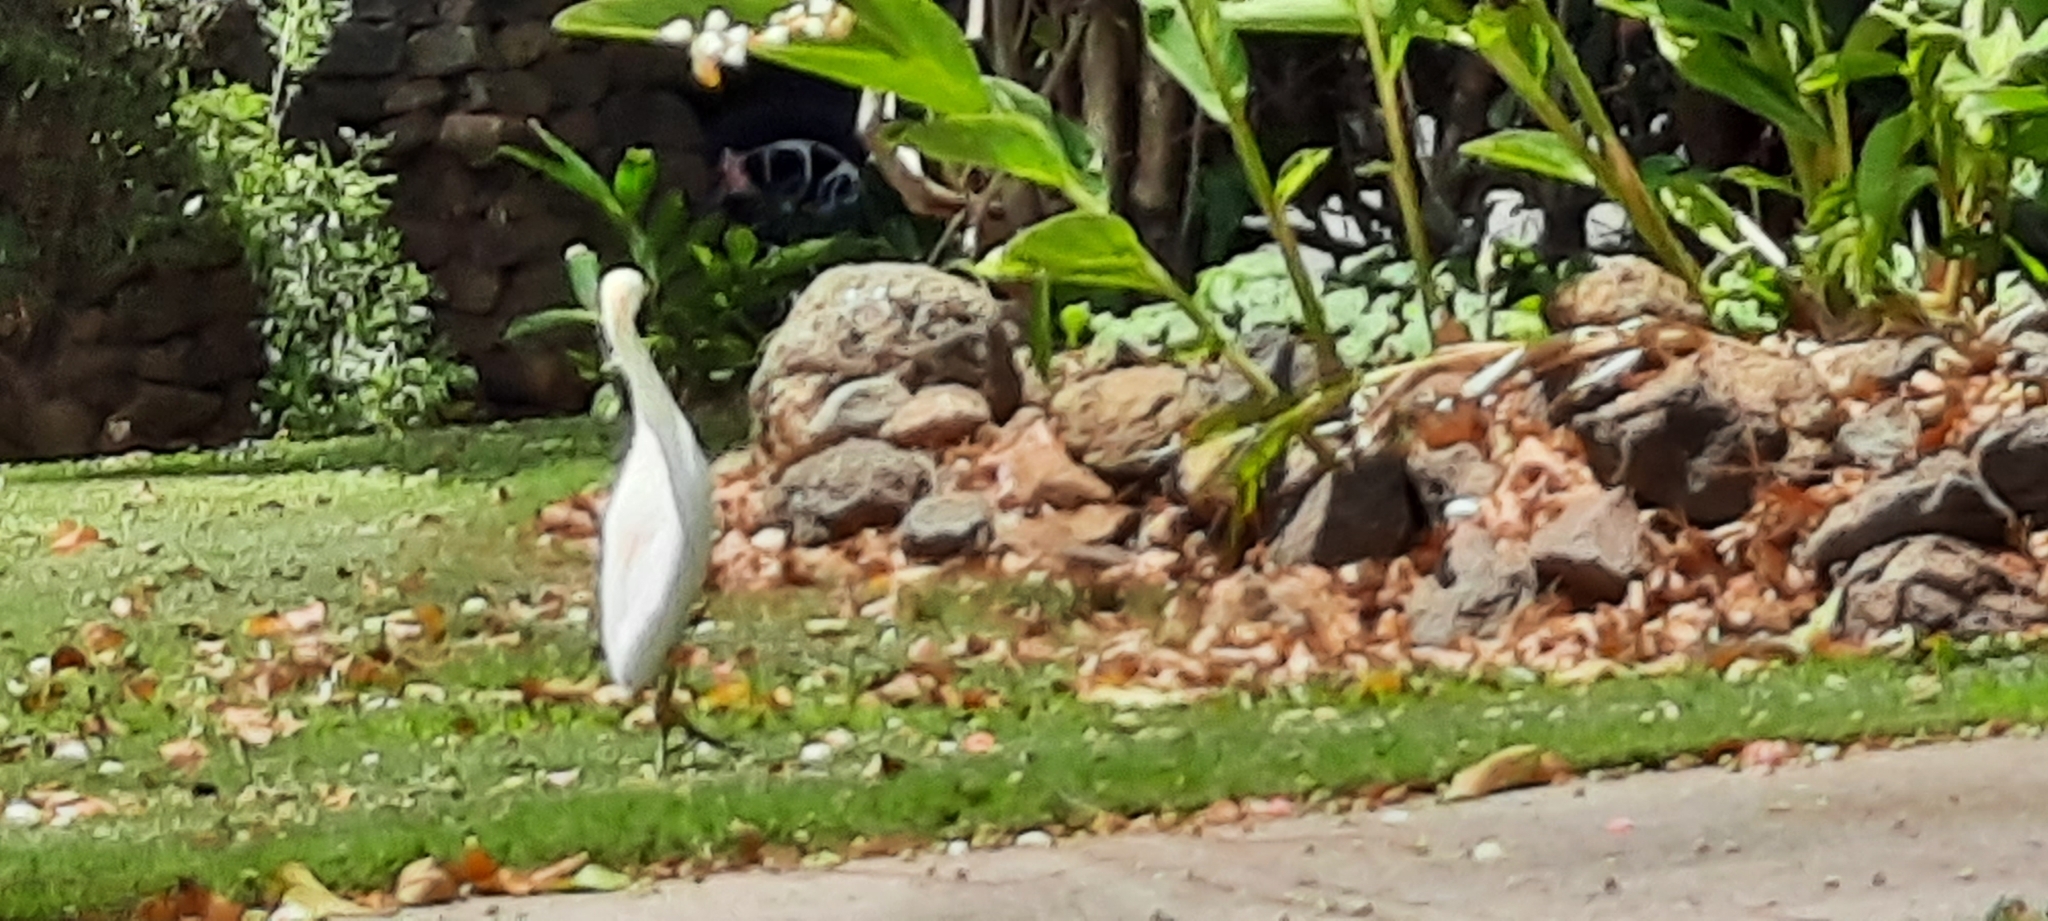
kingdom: Animalia
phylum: Chordata
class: Aves
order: Pelecaniformes
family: Ardeidae
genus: Bubulcus
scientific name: Bubulcus ibis
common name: Cattle egret
